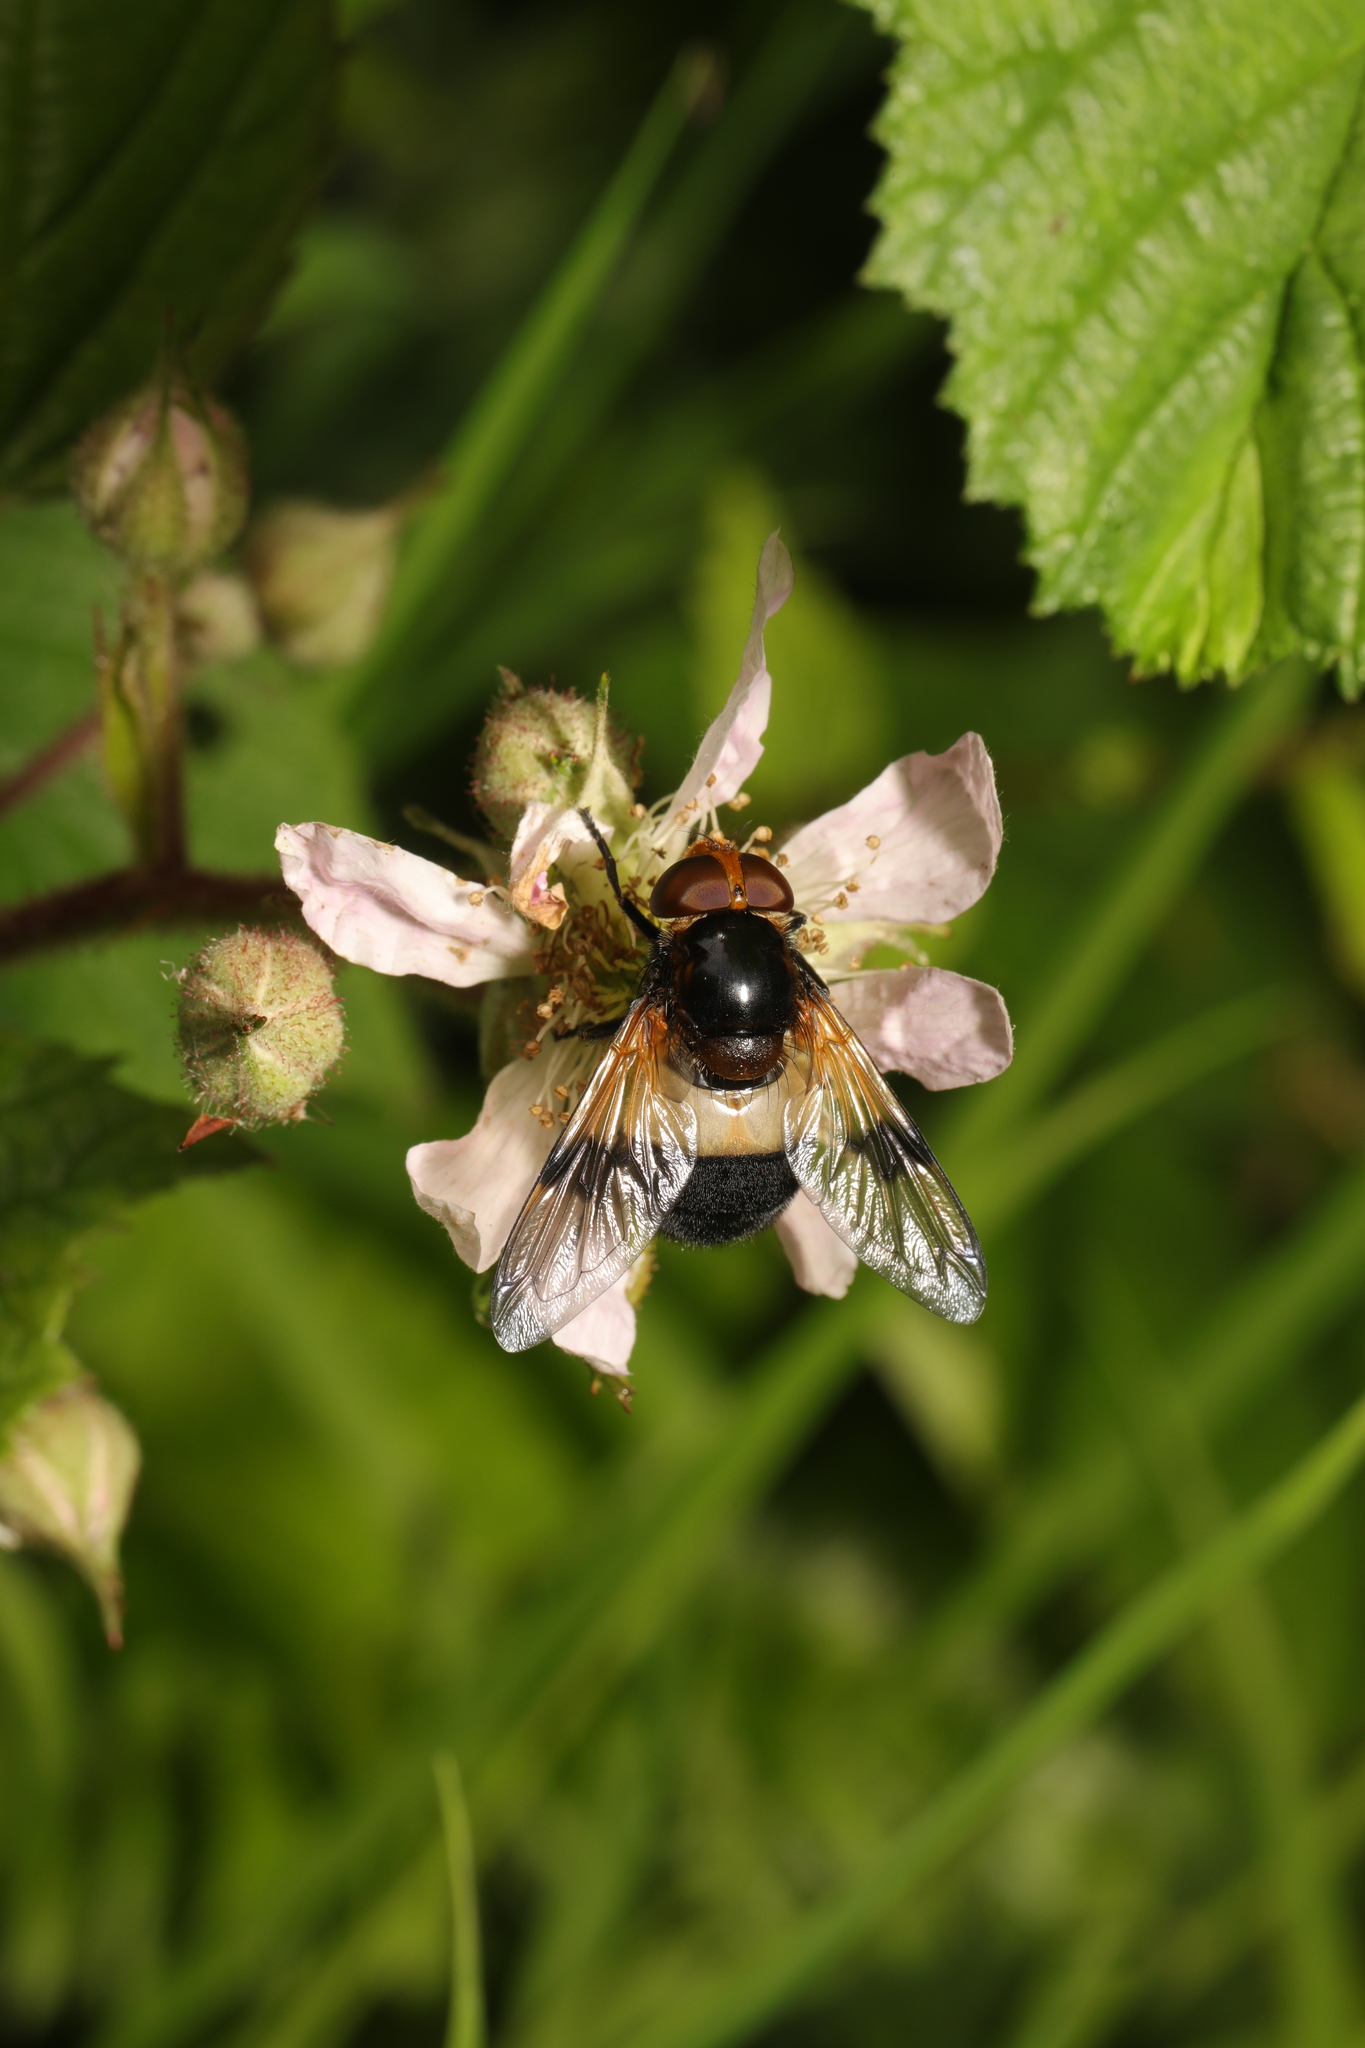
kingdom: Animalia
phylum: Arthropoda
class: Insecta
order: Diptera
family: Syrphidae
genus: Volucella
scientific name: Volucella pellucens
